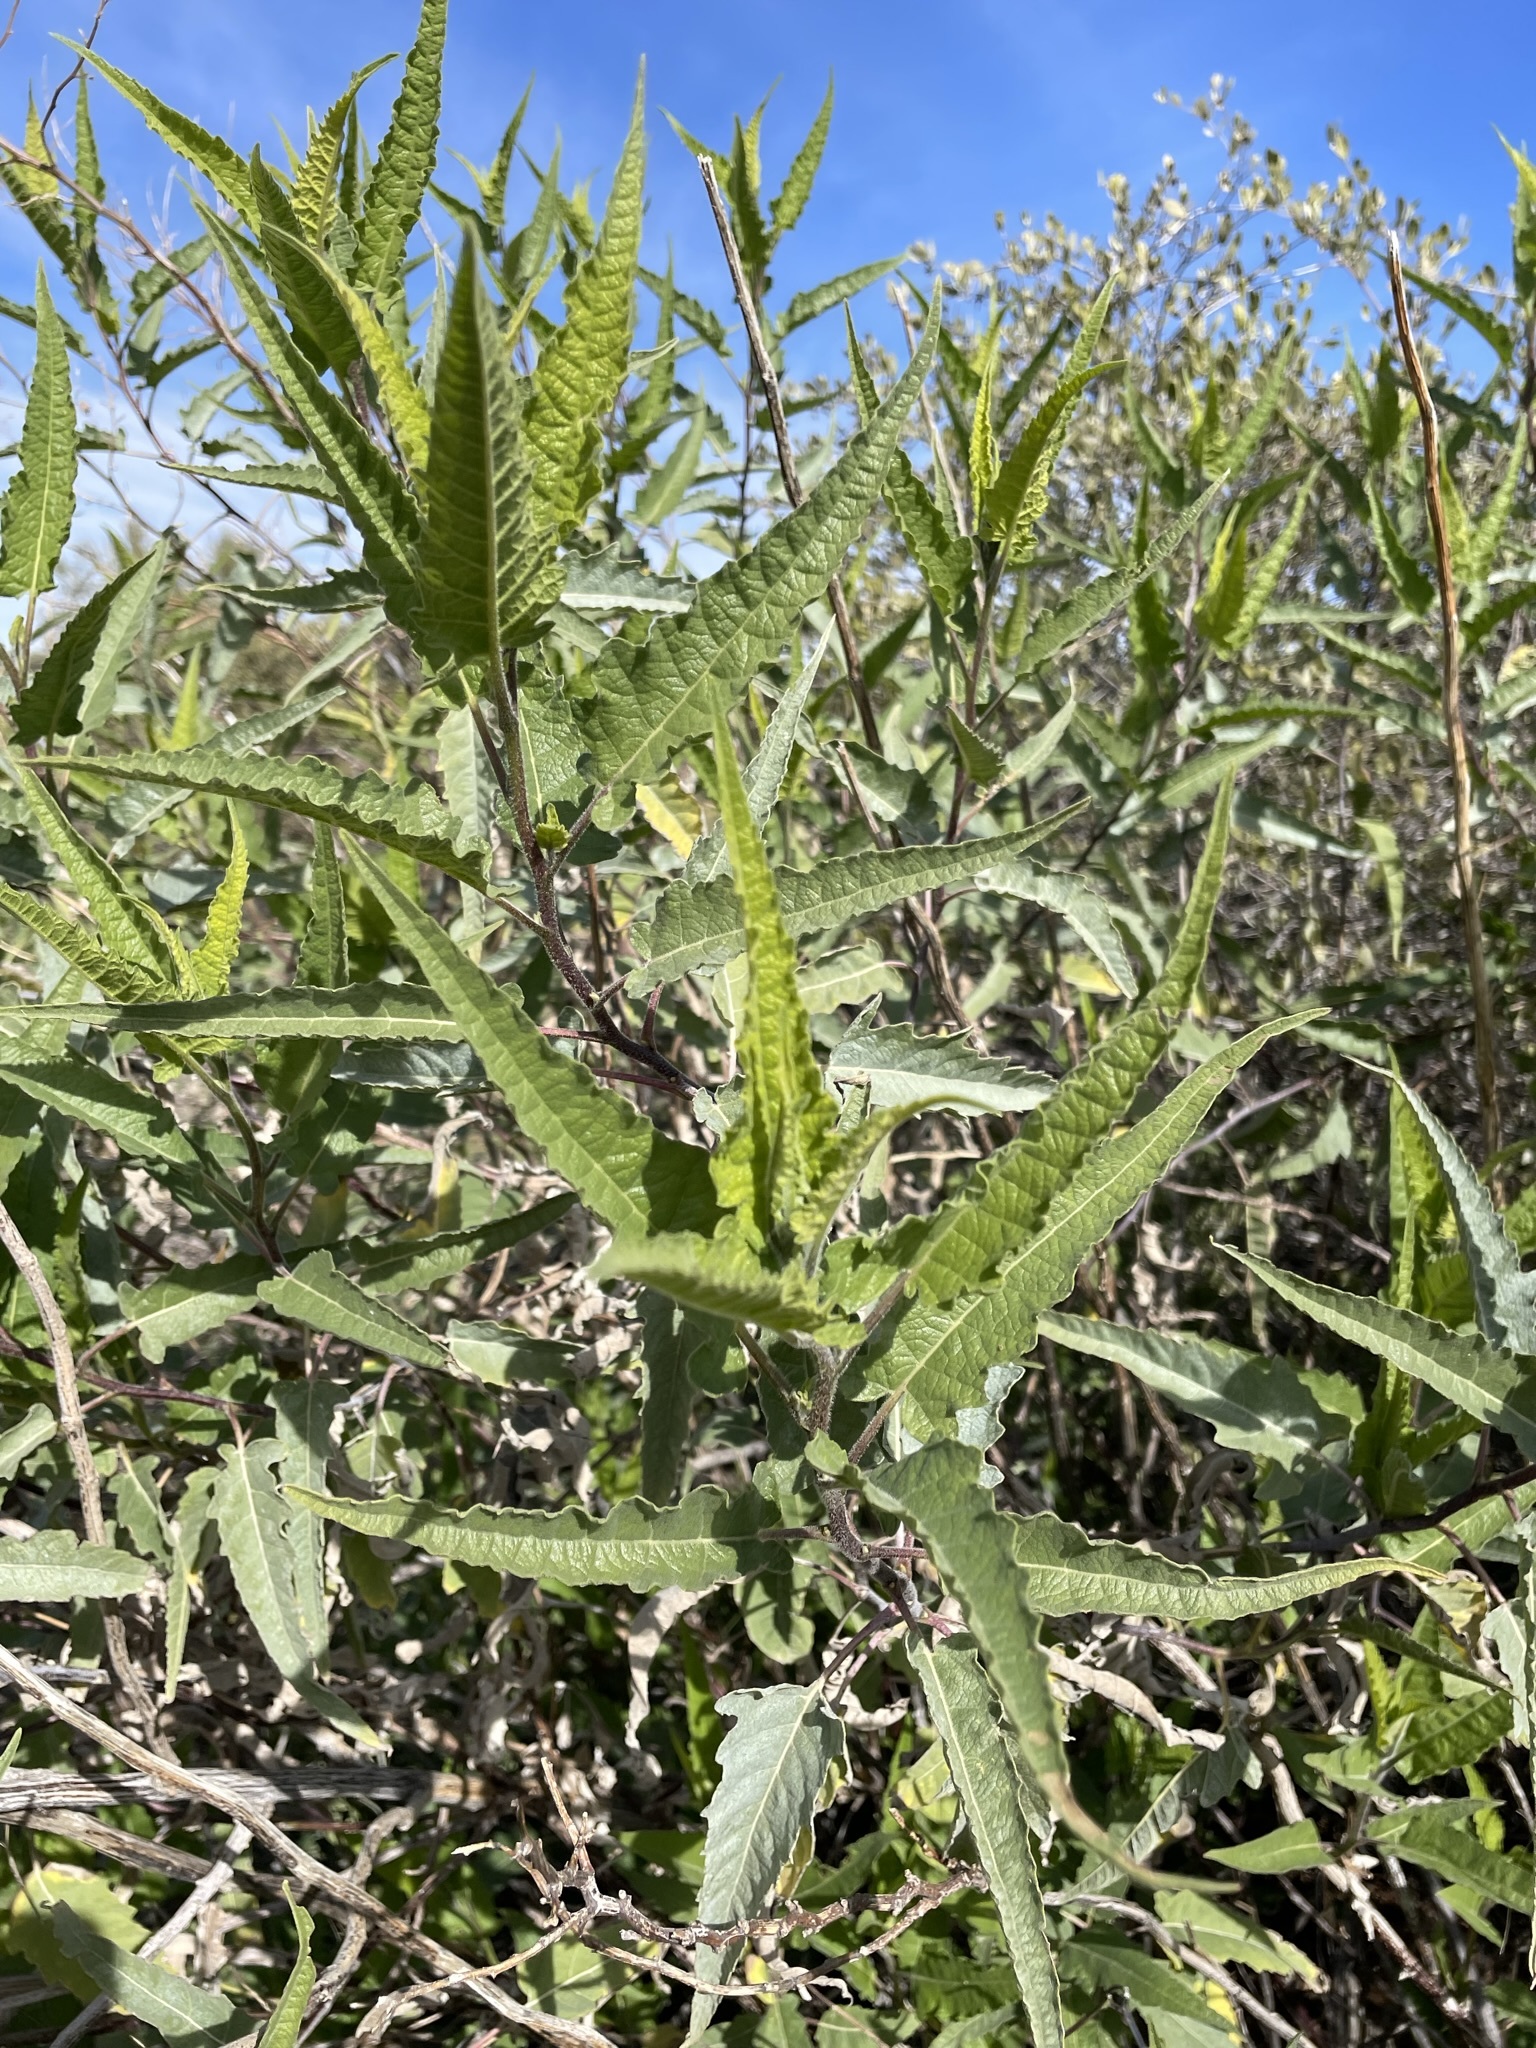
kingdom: Plantae
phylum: Tracheophyta
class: Magnoliopsida
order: Asterales
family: Asteraceae
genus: Ambrosia
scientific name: Ambrosia ambrosioides
